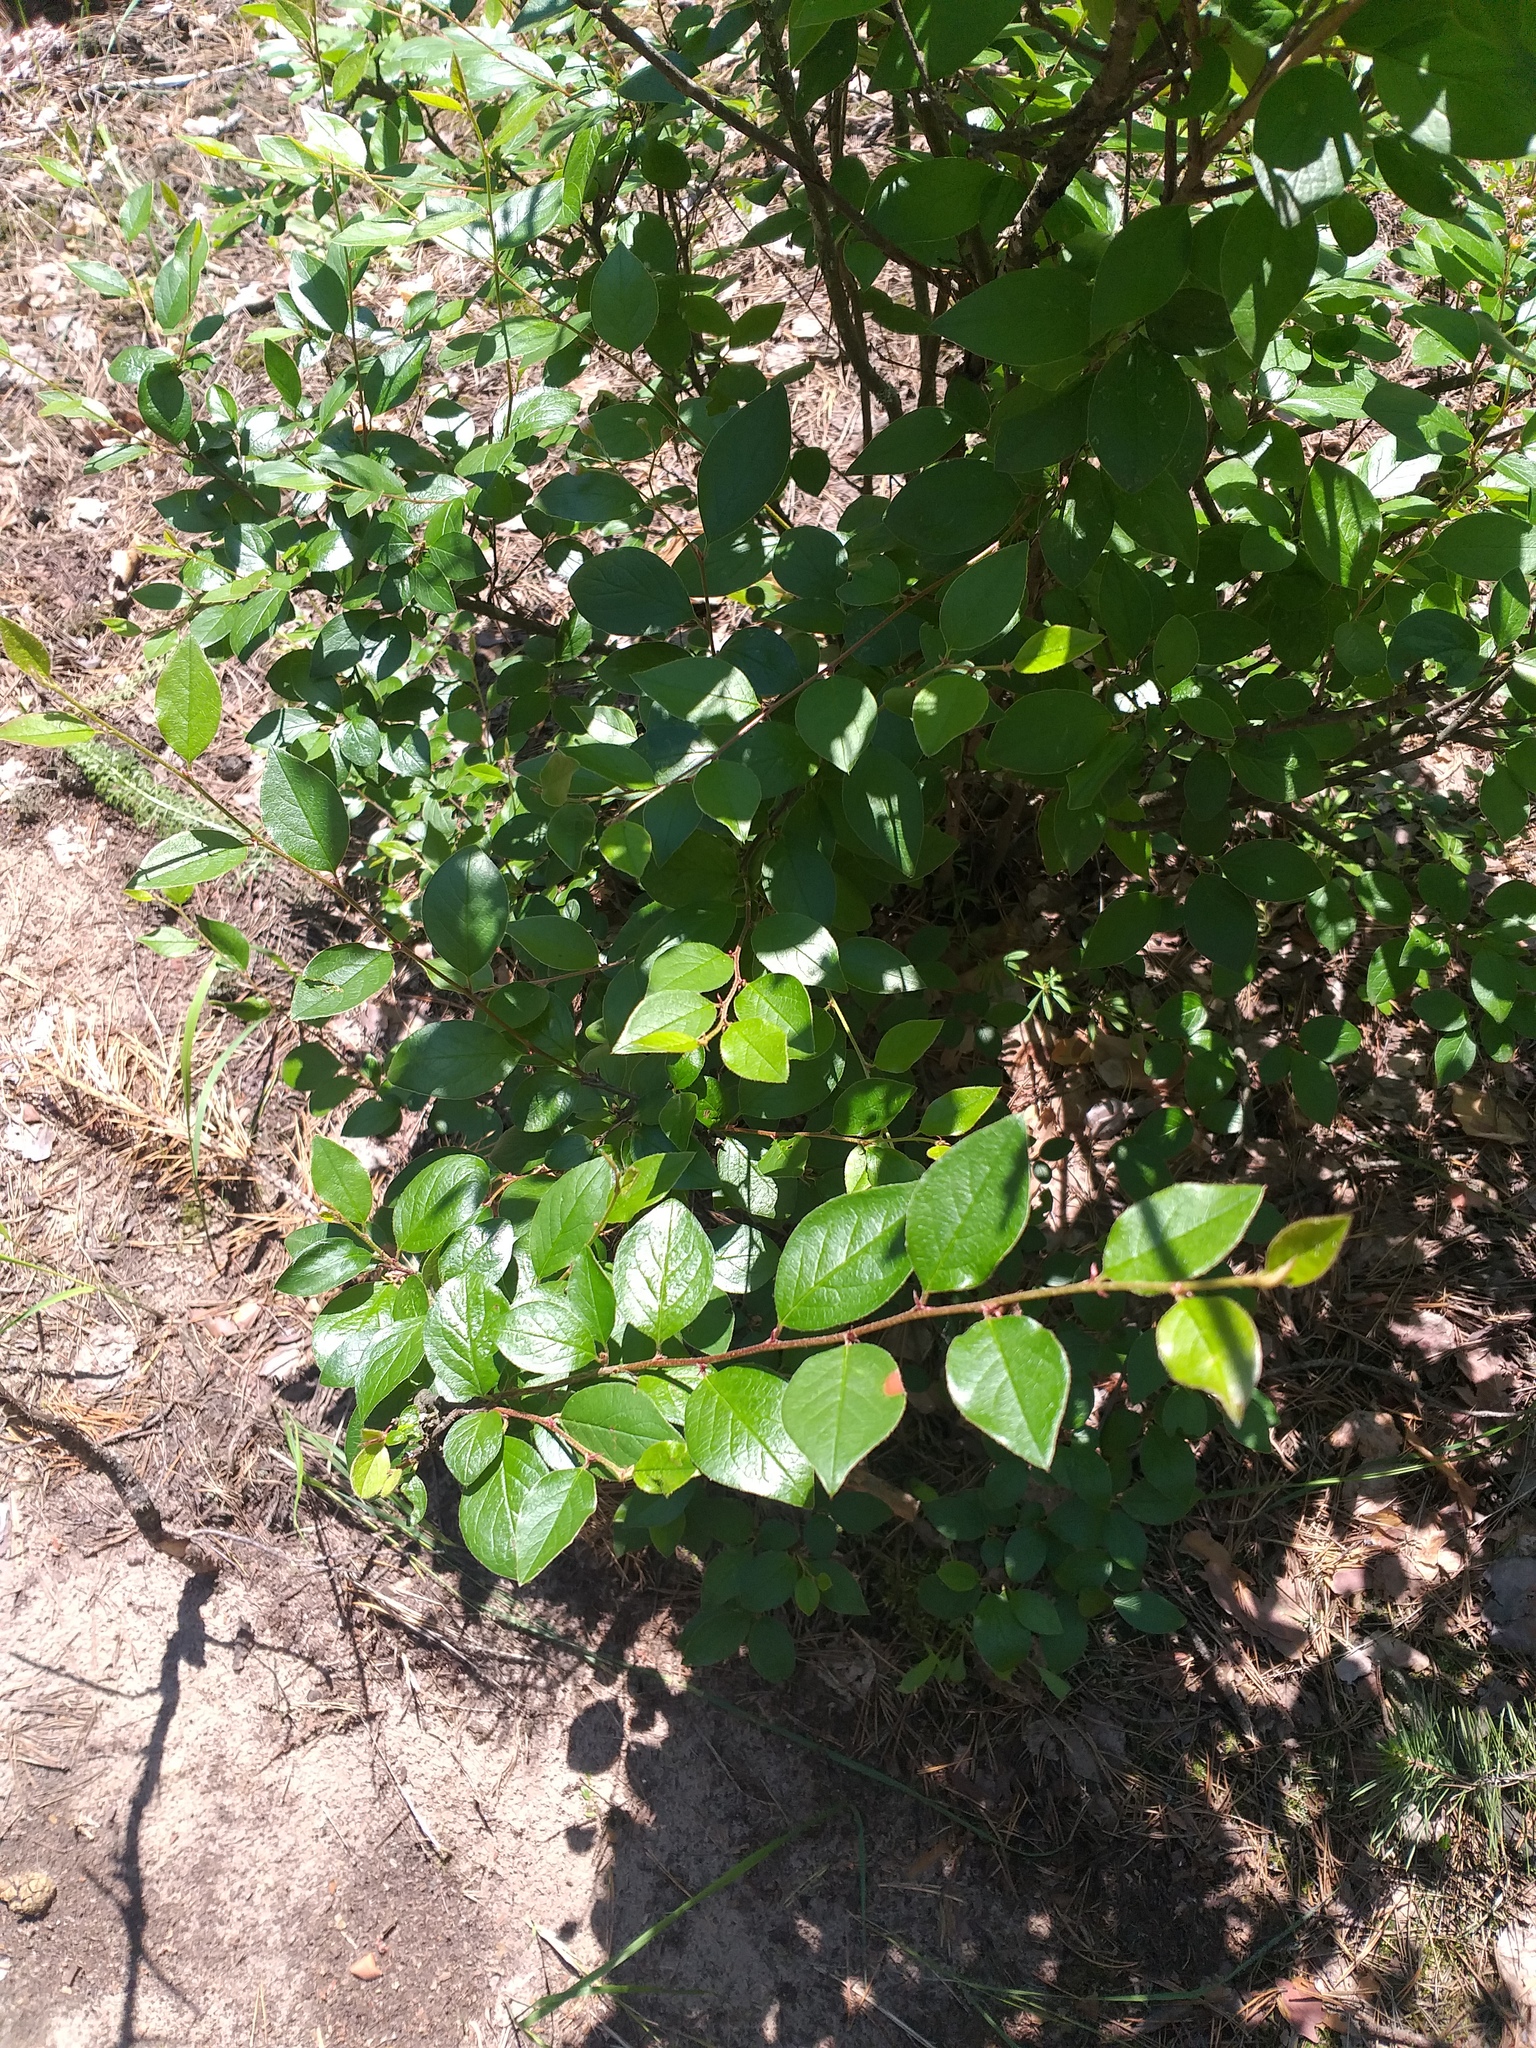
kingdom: Plantae
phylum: Tracheophyta
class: Magnoliopsida
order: Rosales
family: Rosaceae
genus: Cotoneaster
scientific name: Cotoneaster acutifolius
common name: Peking cotoneaster
